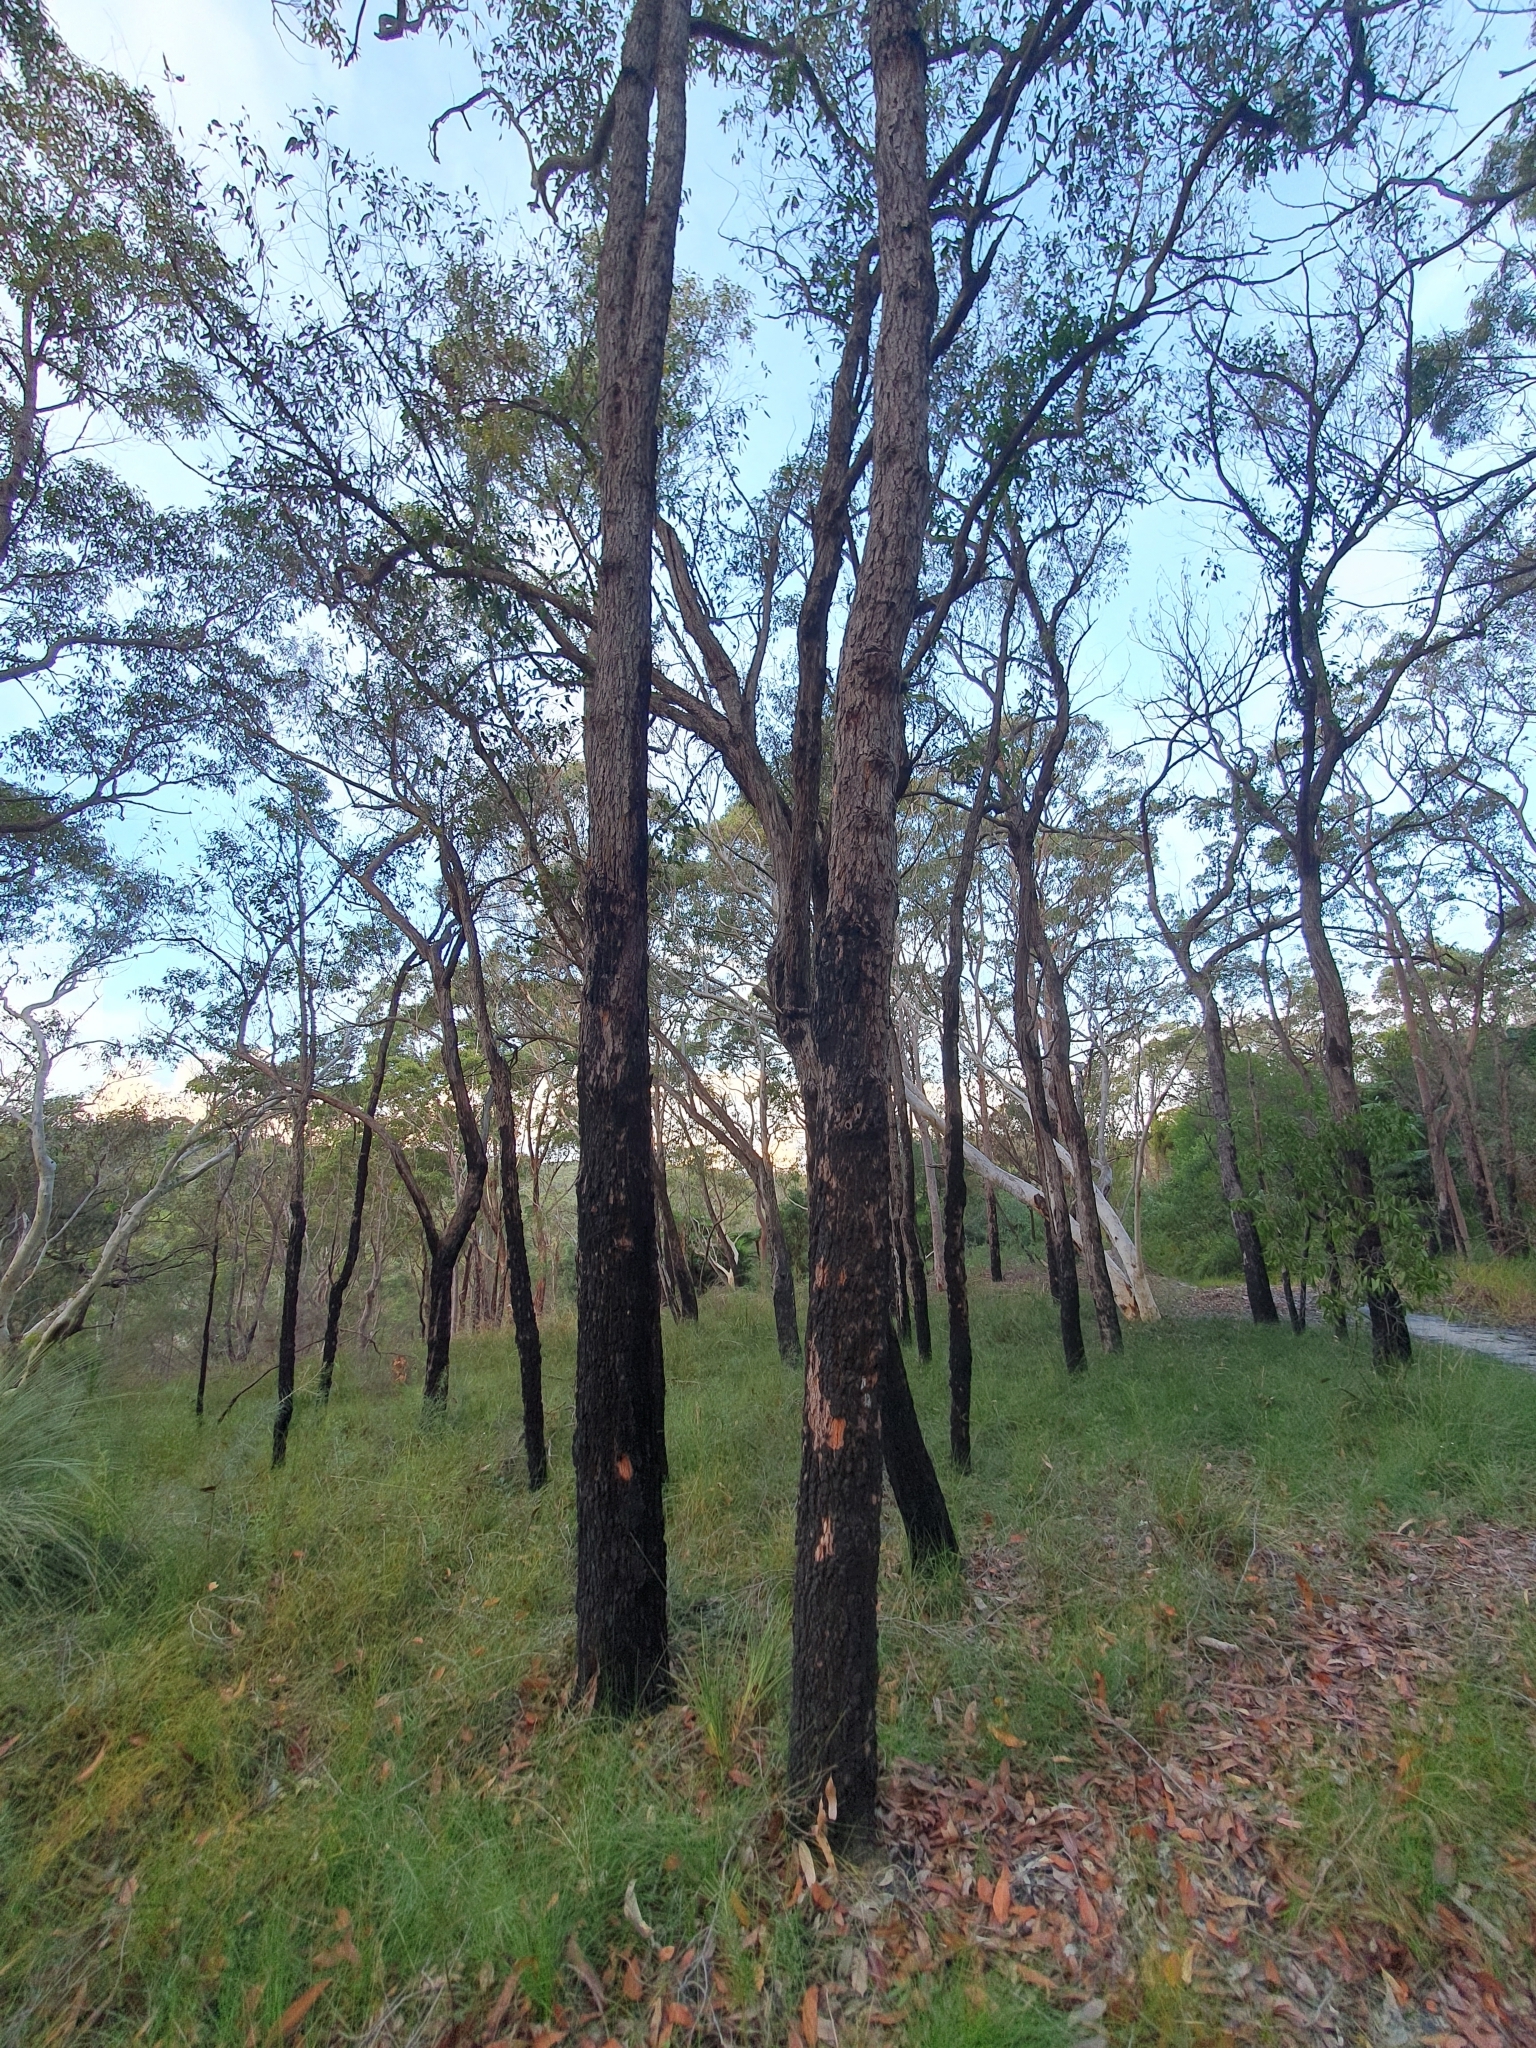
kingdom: Plantae
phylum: Tracheophyta
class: Magnoliopsida
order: Myrtales
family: Myrtaceae
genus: Corymbia
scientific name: Corymbia gummifera
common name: Red bloodwood
